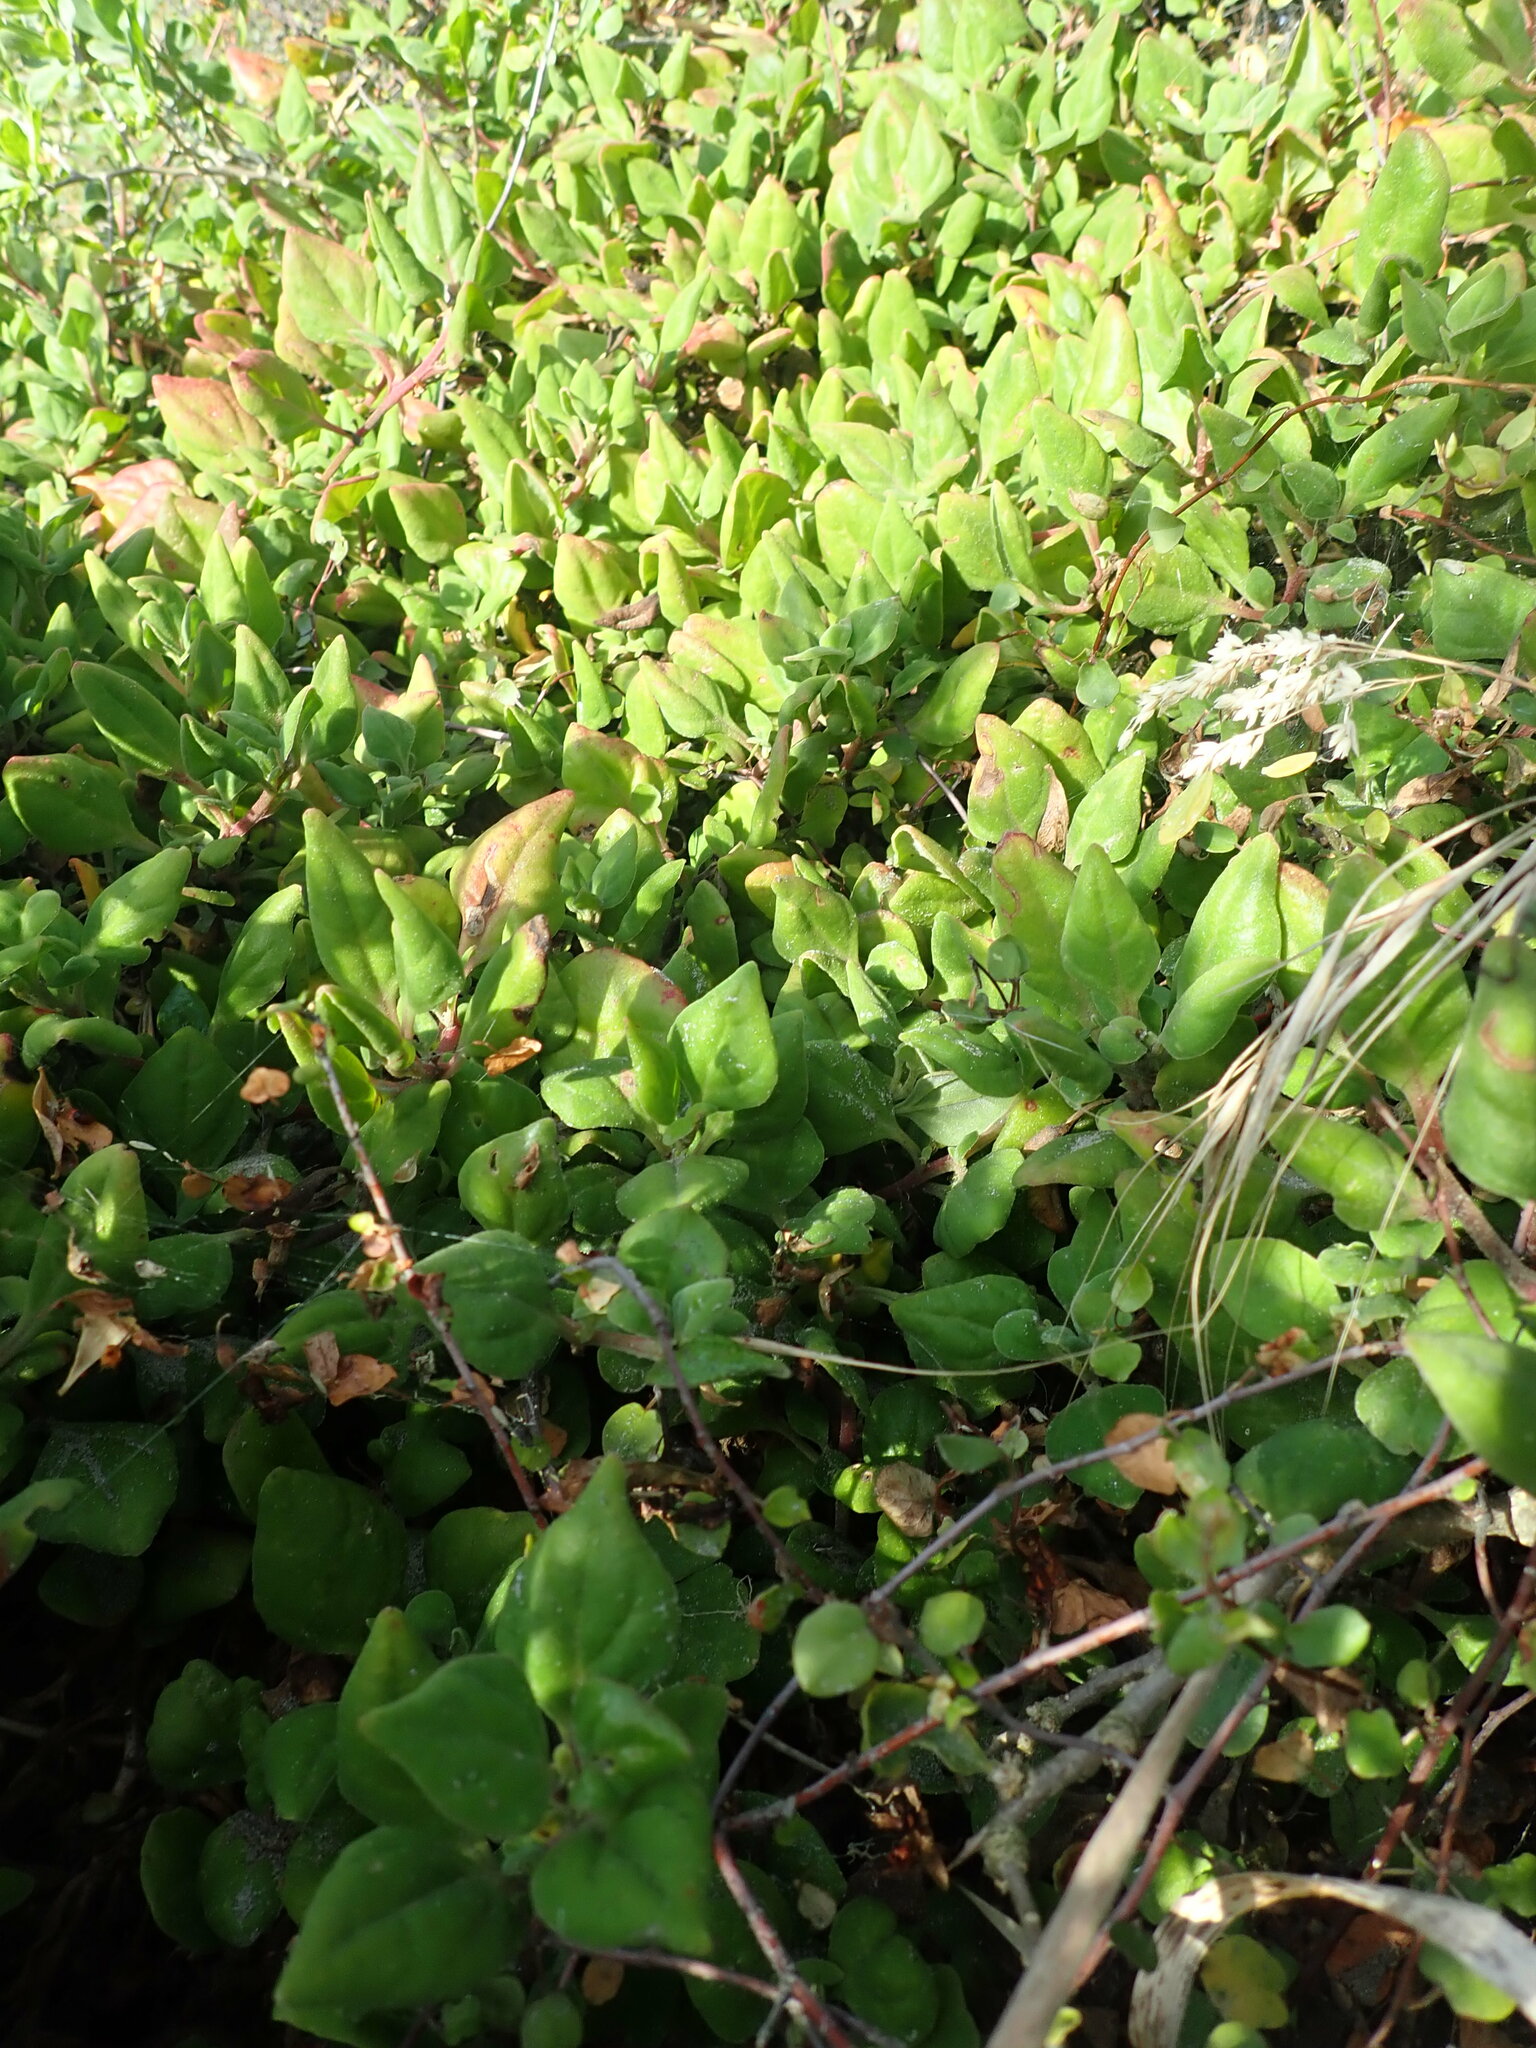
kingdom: Plantae
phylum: Tracheophyta
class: Magnoliopsida
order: Caryophyllales
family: Aizoaceae
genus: Tetragonia
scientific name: Tetragonia implexicoma
